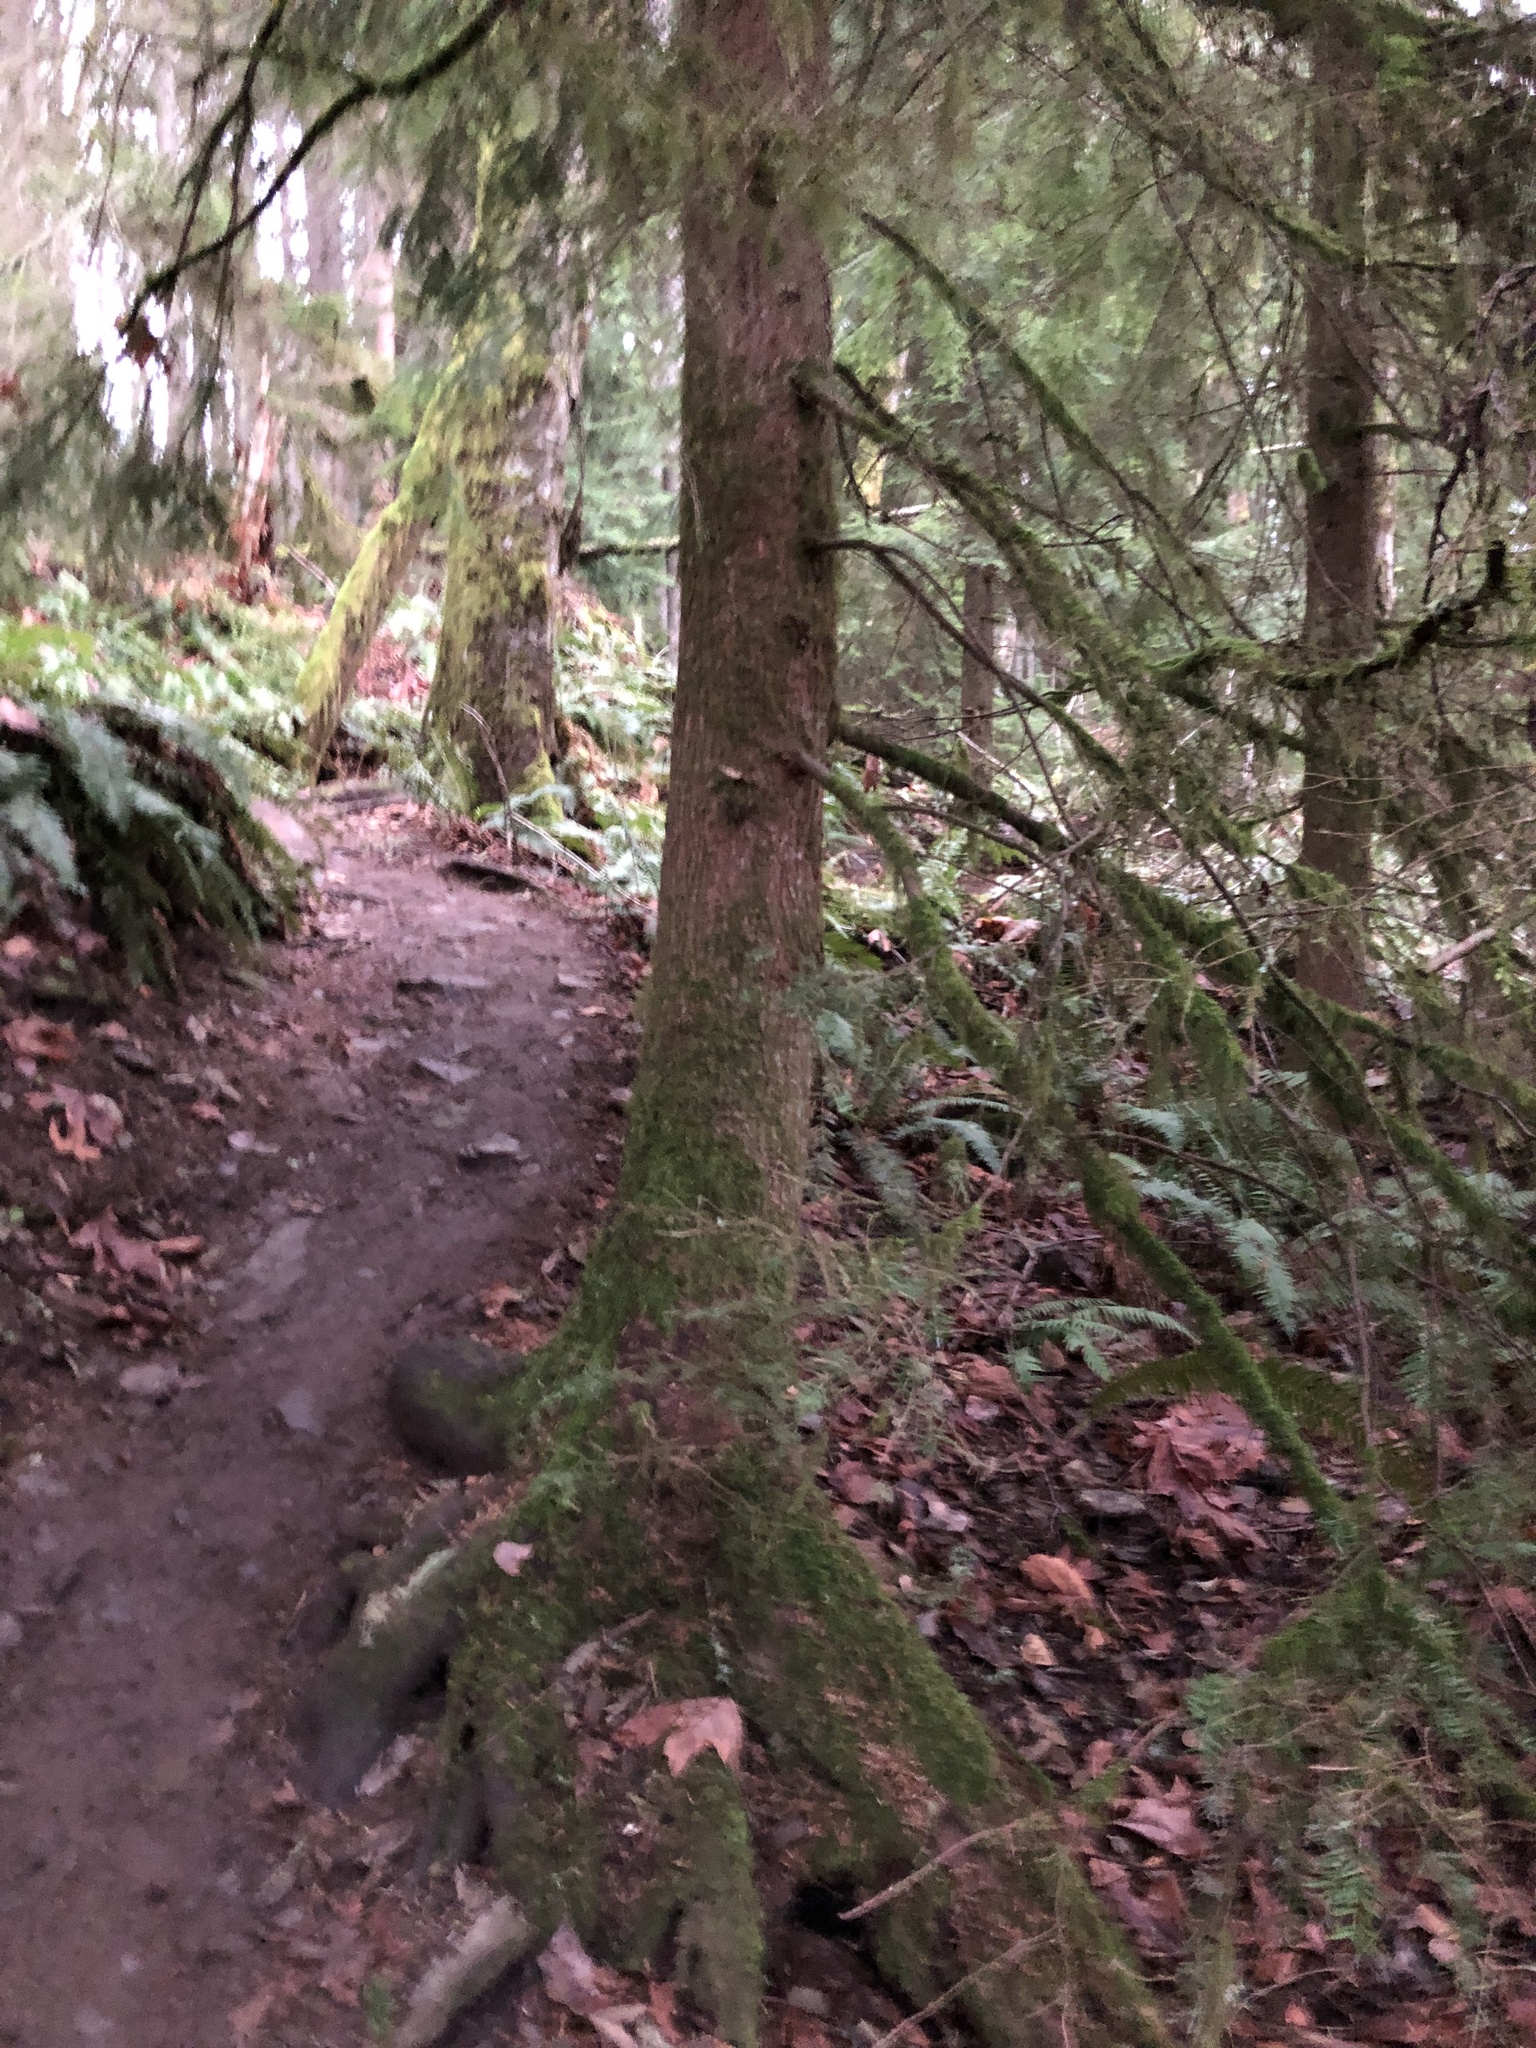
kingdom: Plantae
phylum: Tracheophyta
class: Pinopsida
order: Pinales
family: Pinaceae
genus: Tsuga
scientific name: Tsuga heterophylla
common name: Western hemlock
